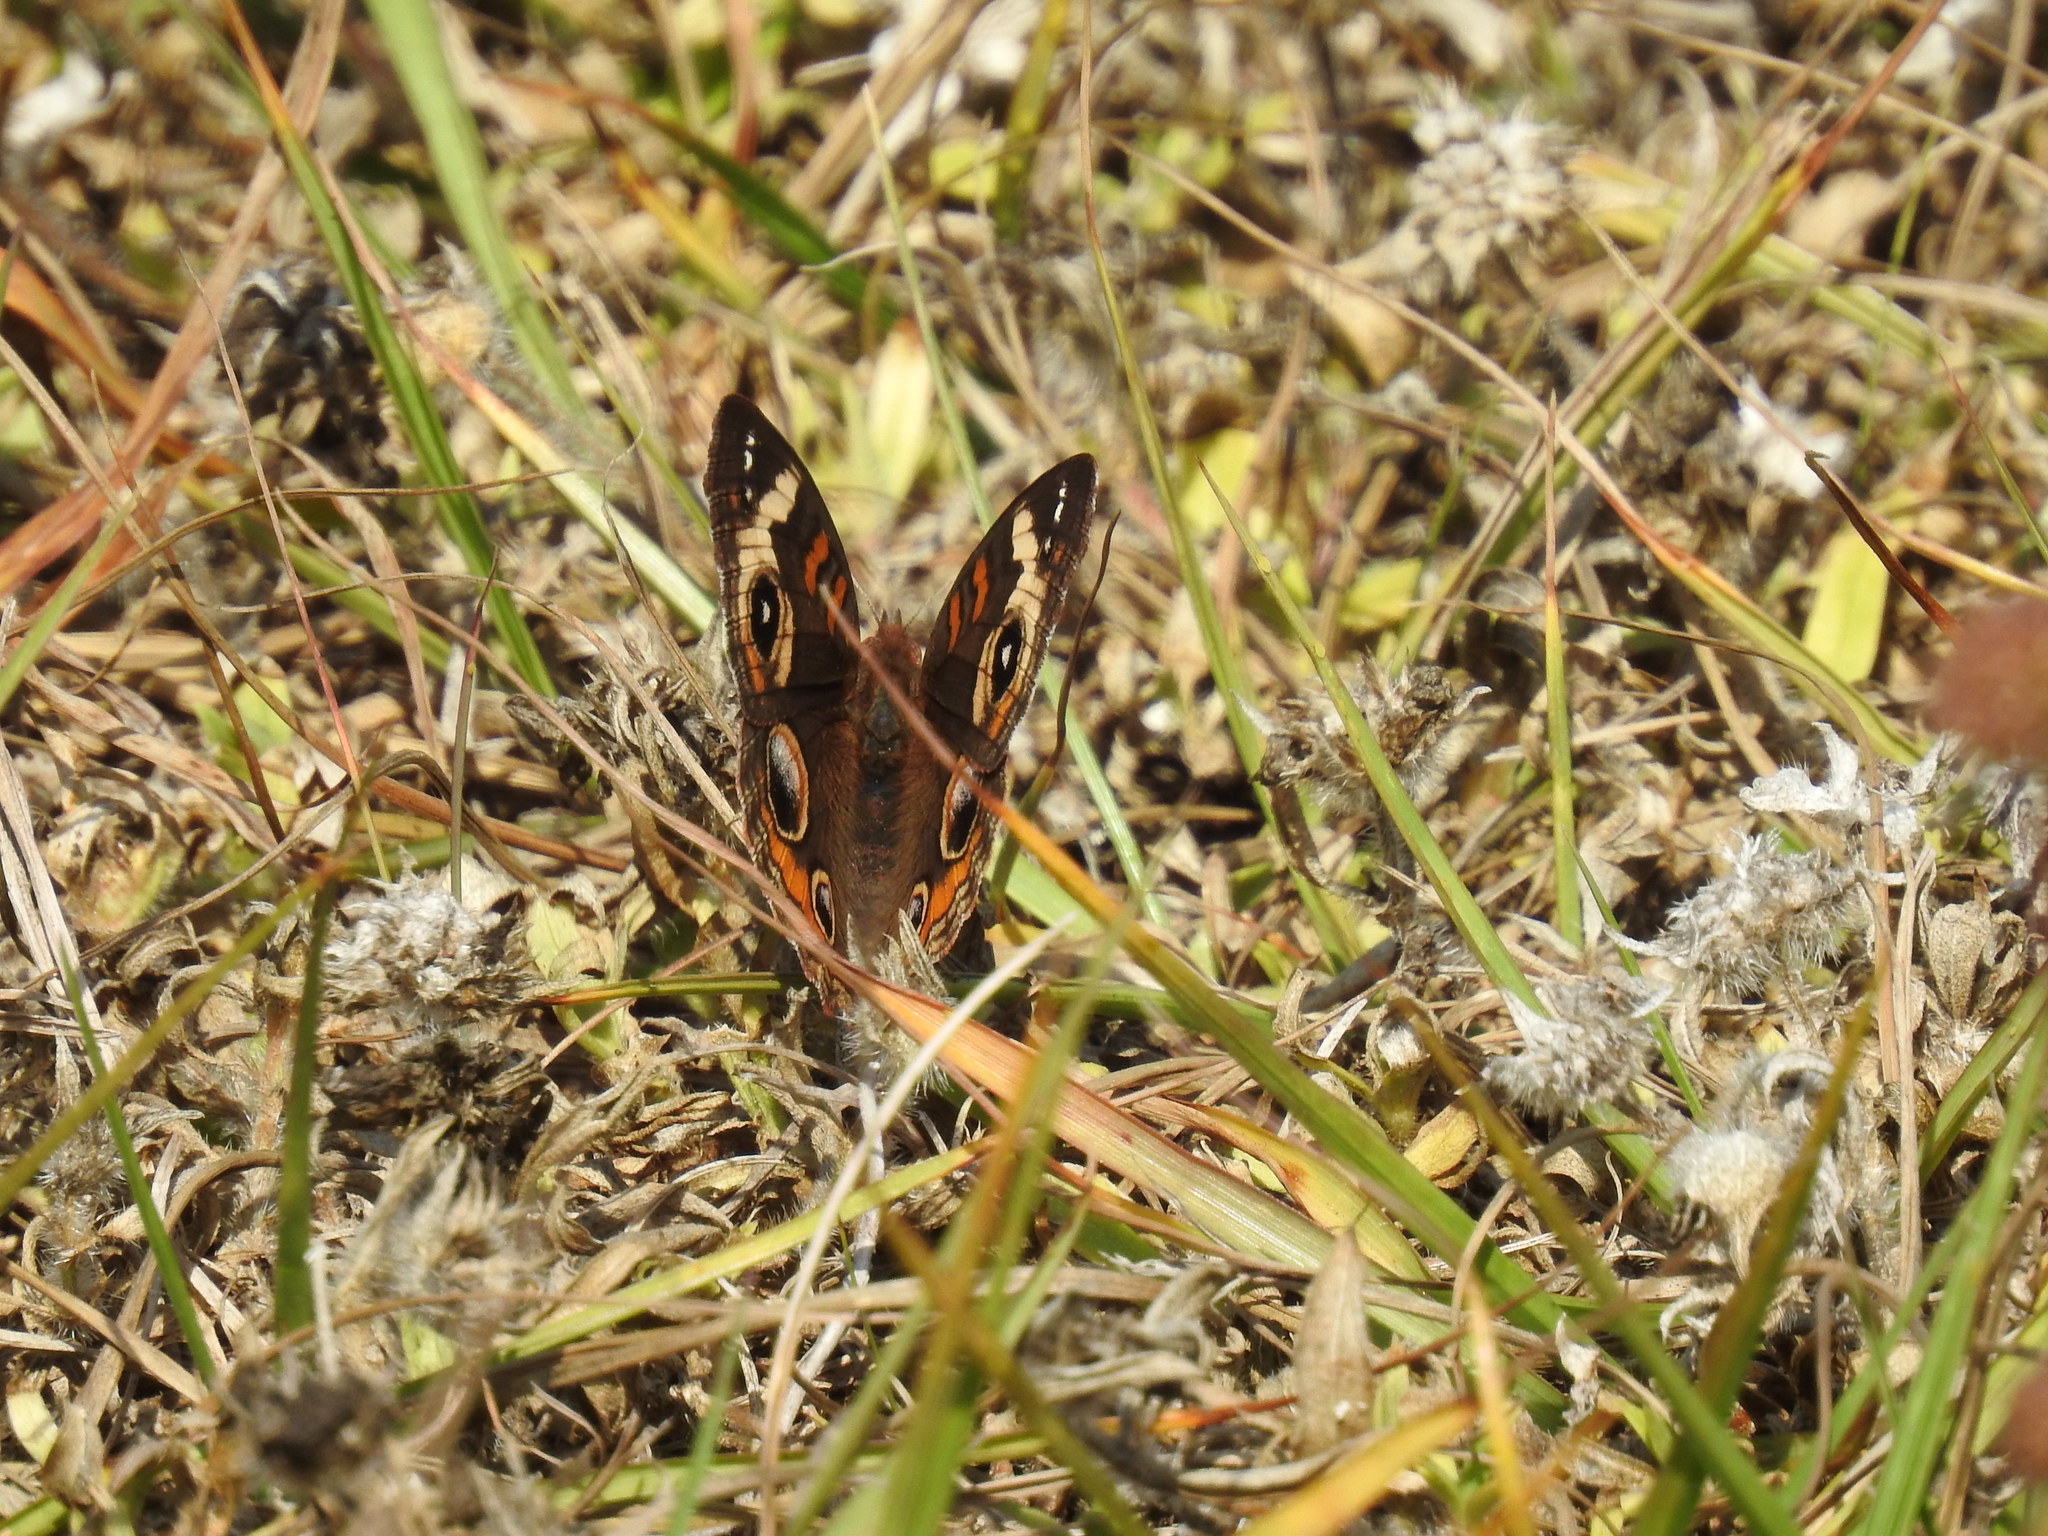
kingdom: Animalia
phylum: Arthropoda
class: Insecta
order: Lepidoptera
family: Nymphalidae
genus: Junonia
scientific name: Junonia coenia
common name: Common buckeye
